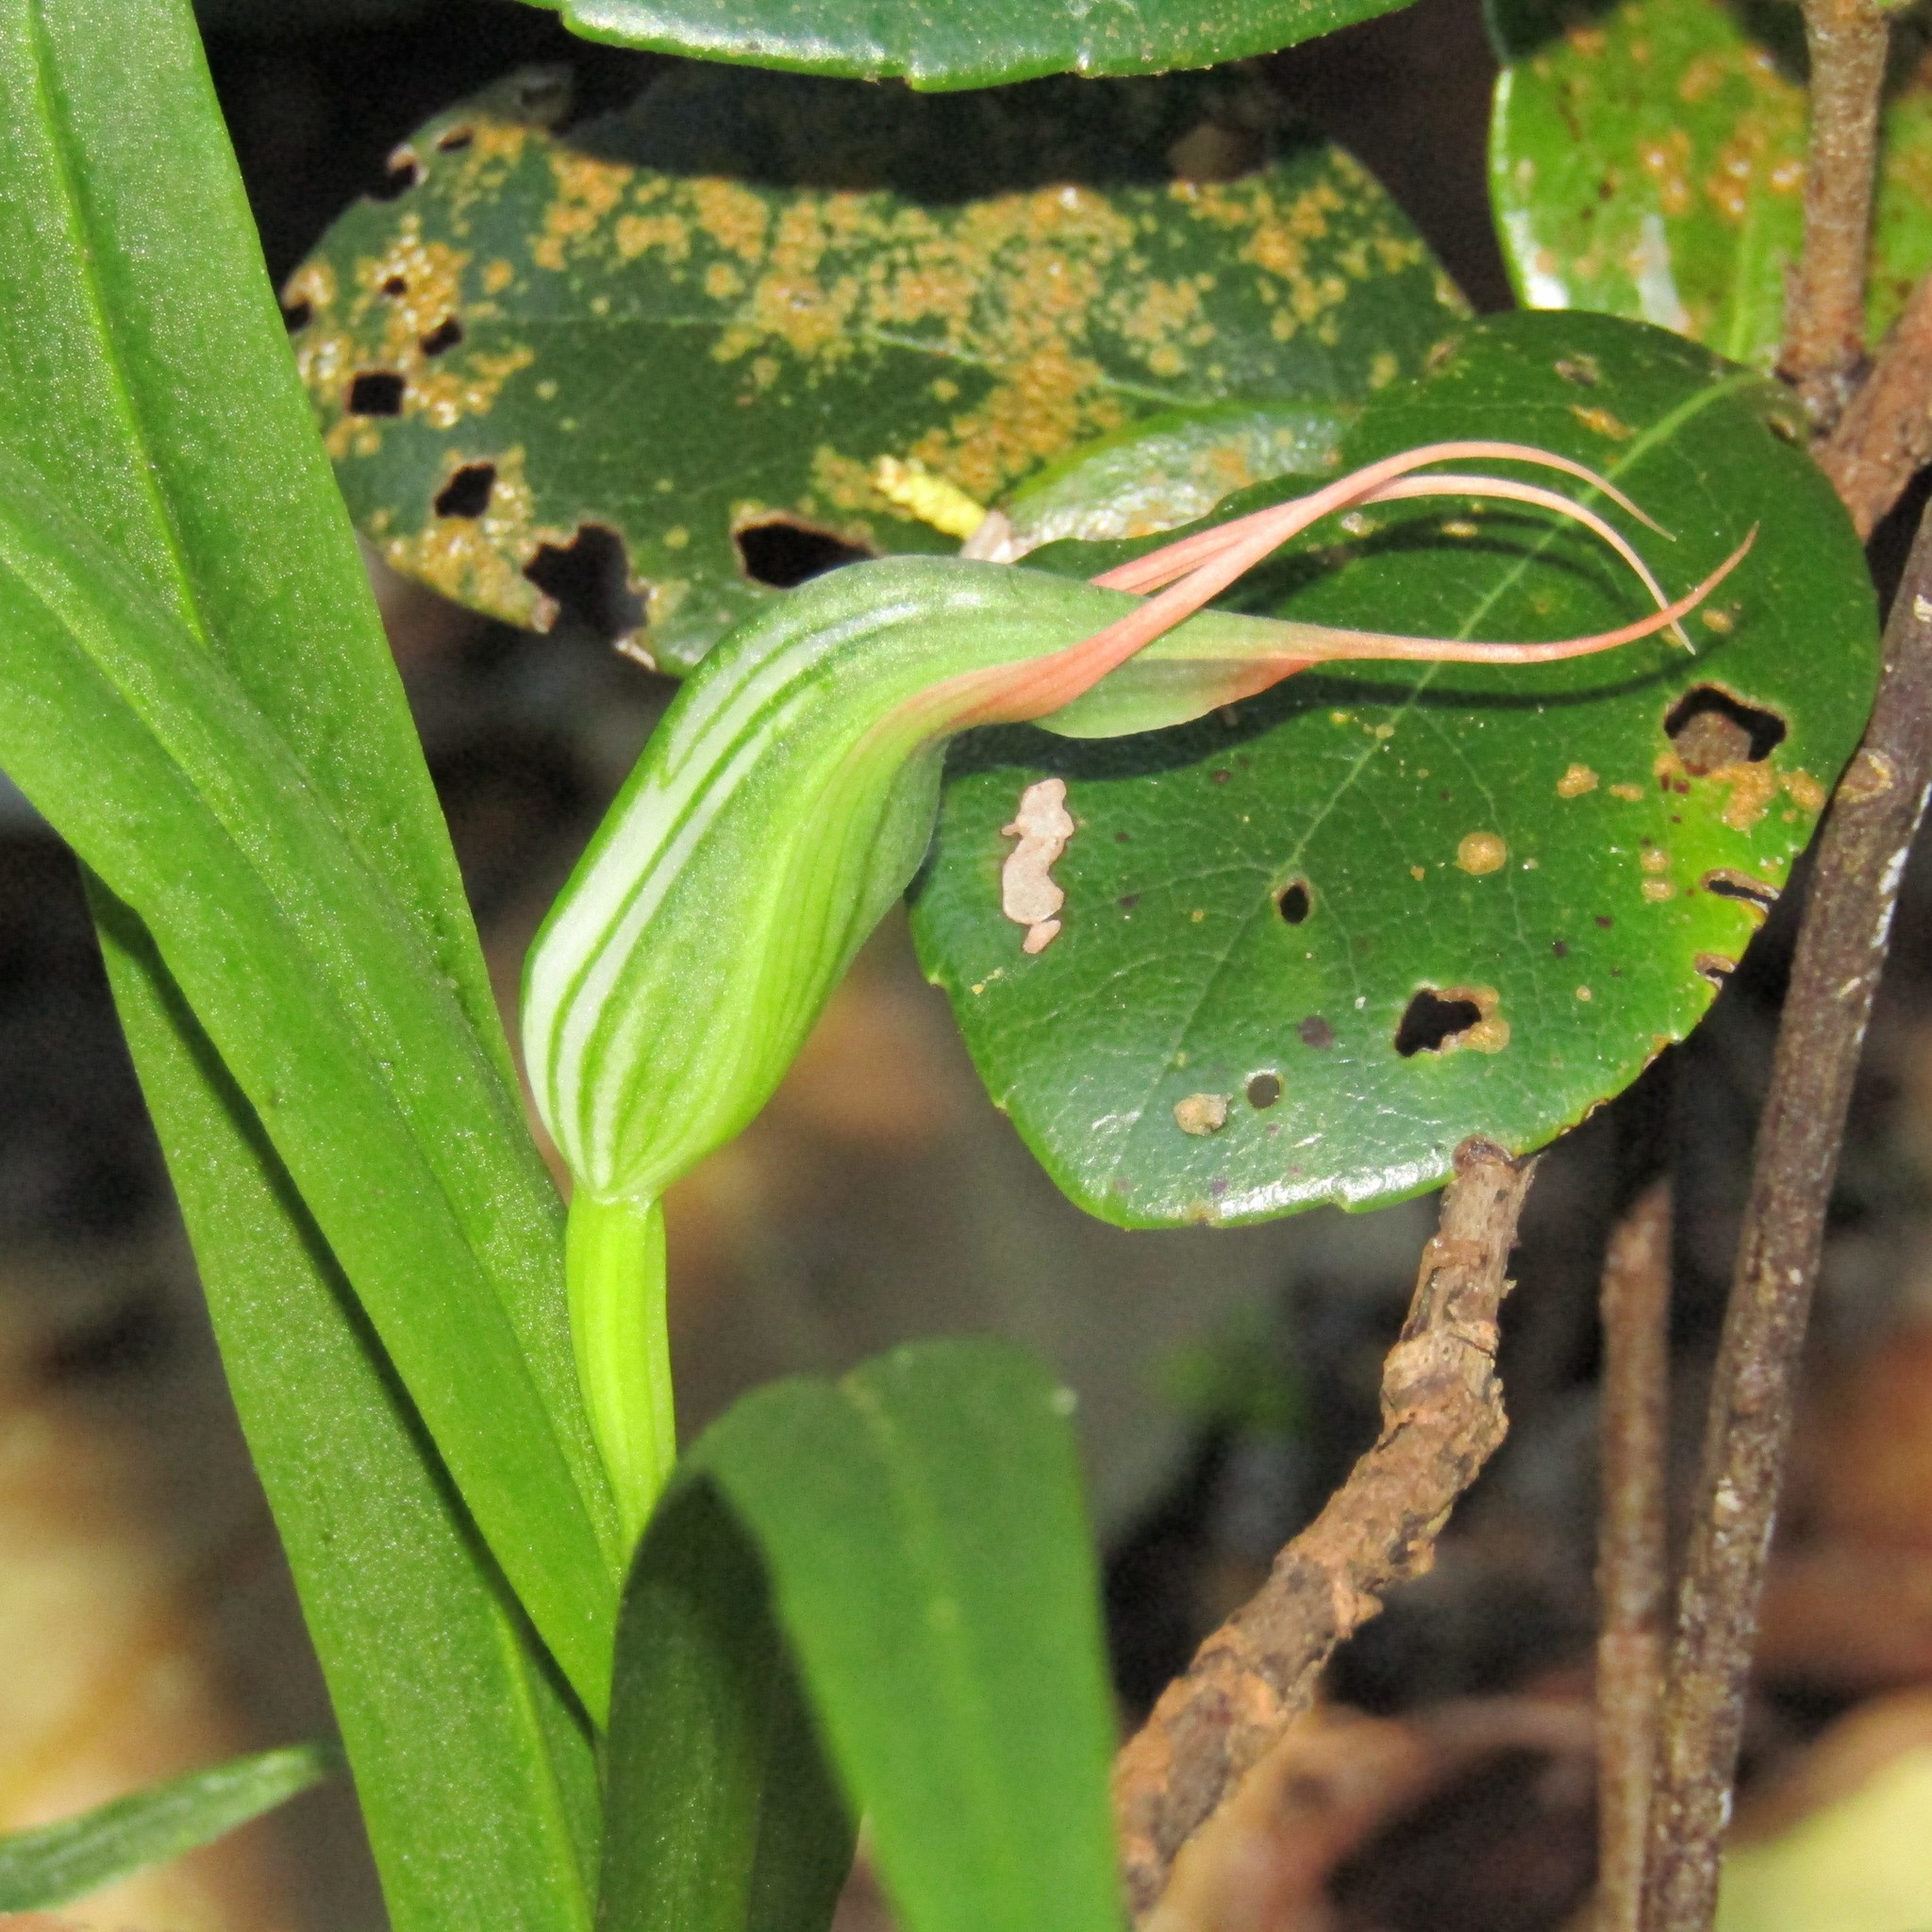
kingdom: Plantae
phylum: Tracheophyta
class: Liliopsida
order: Asparagales
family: Orchidaceae
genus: Pterostylis
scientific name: Pterostylis banksii
